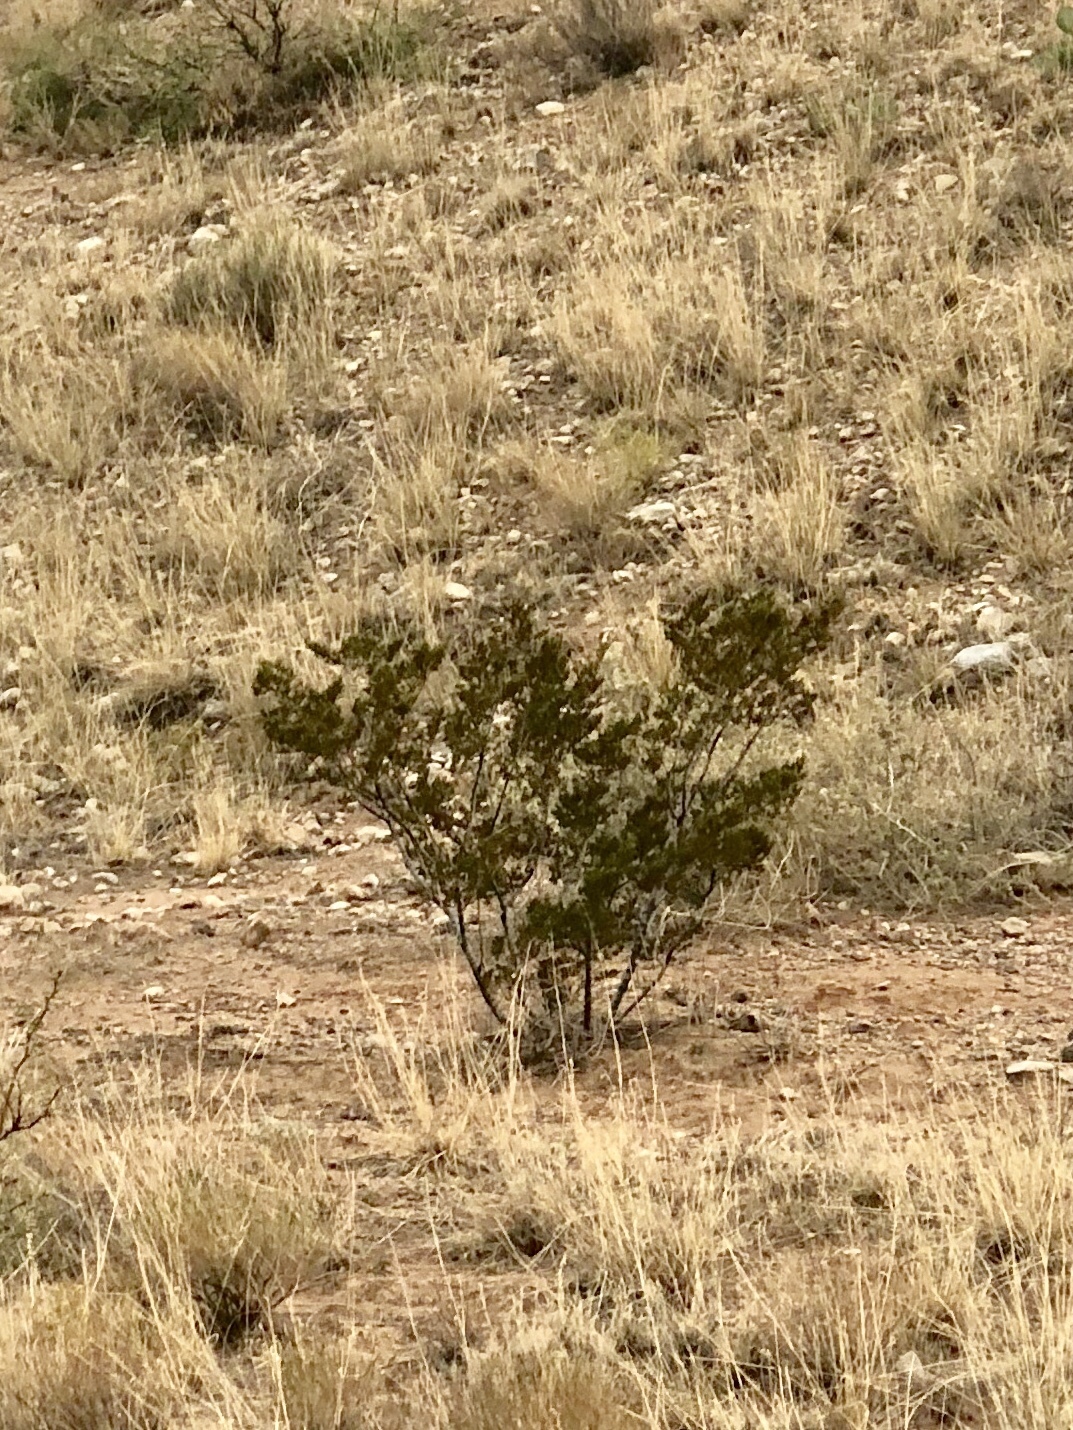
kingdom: Plantae
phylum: Tracheophyta
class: Magnoliopsida
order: Zygophyllales
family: Zygophyllaceae
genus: Larrea
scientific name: Larrea tridentata
